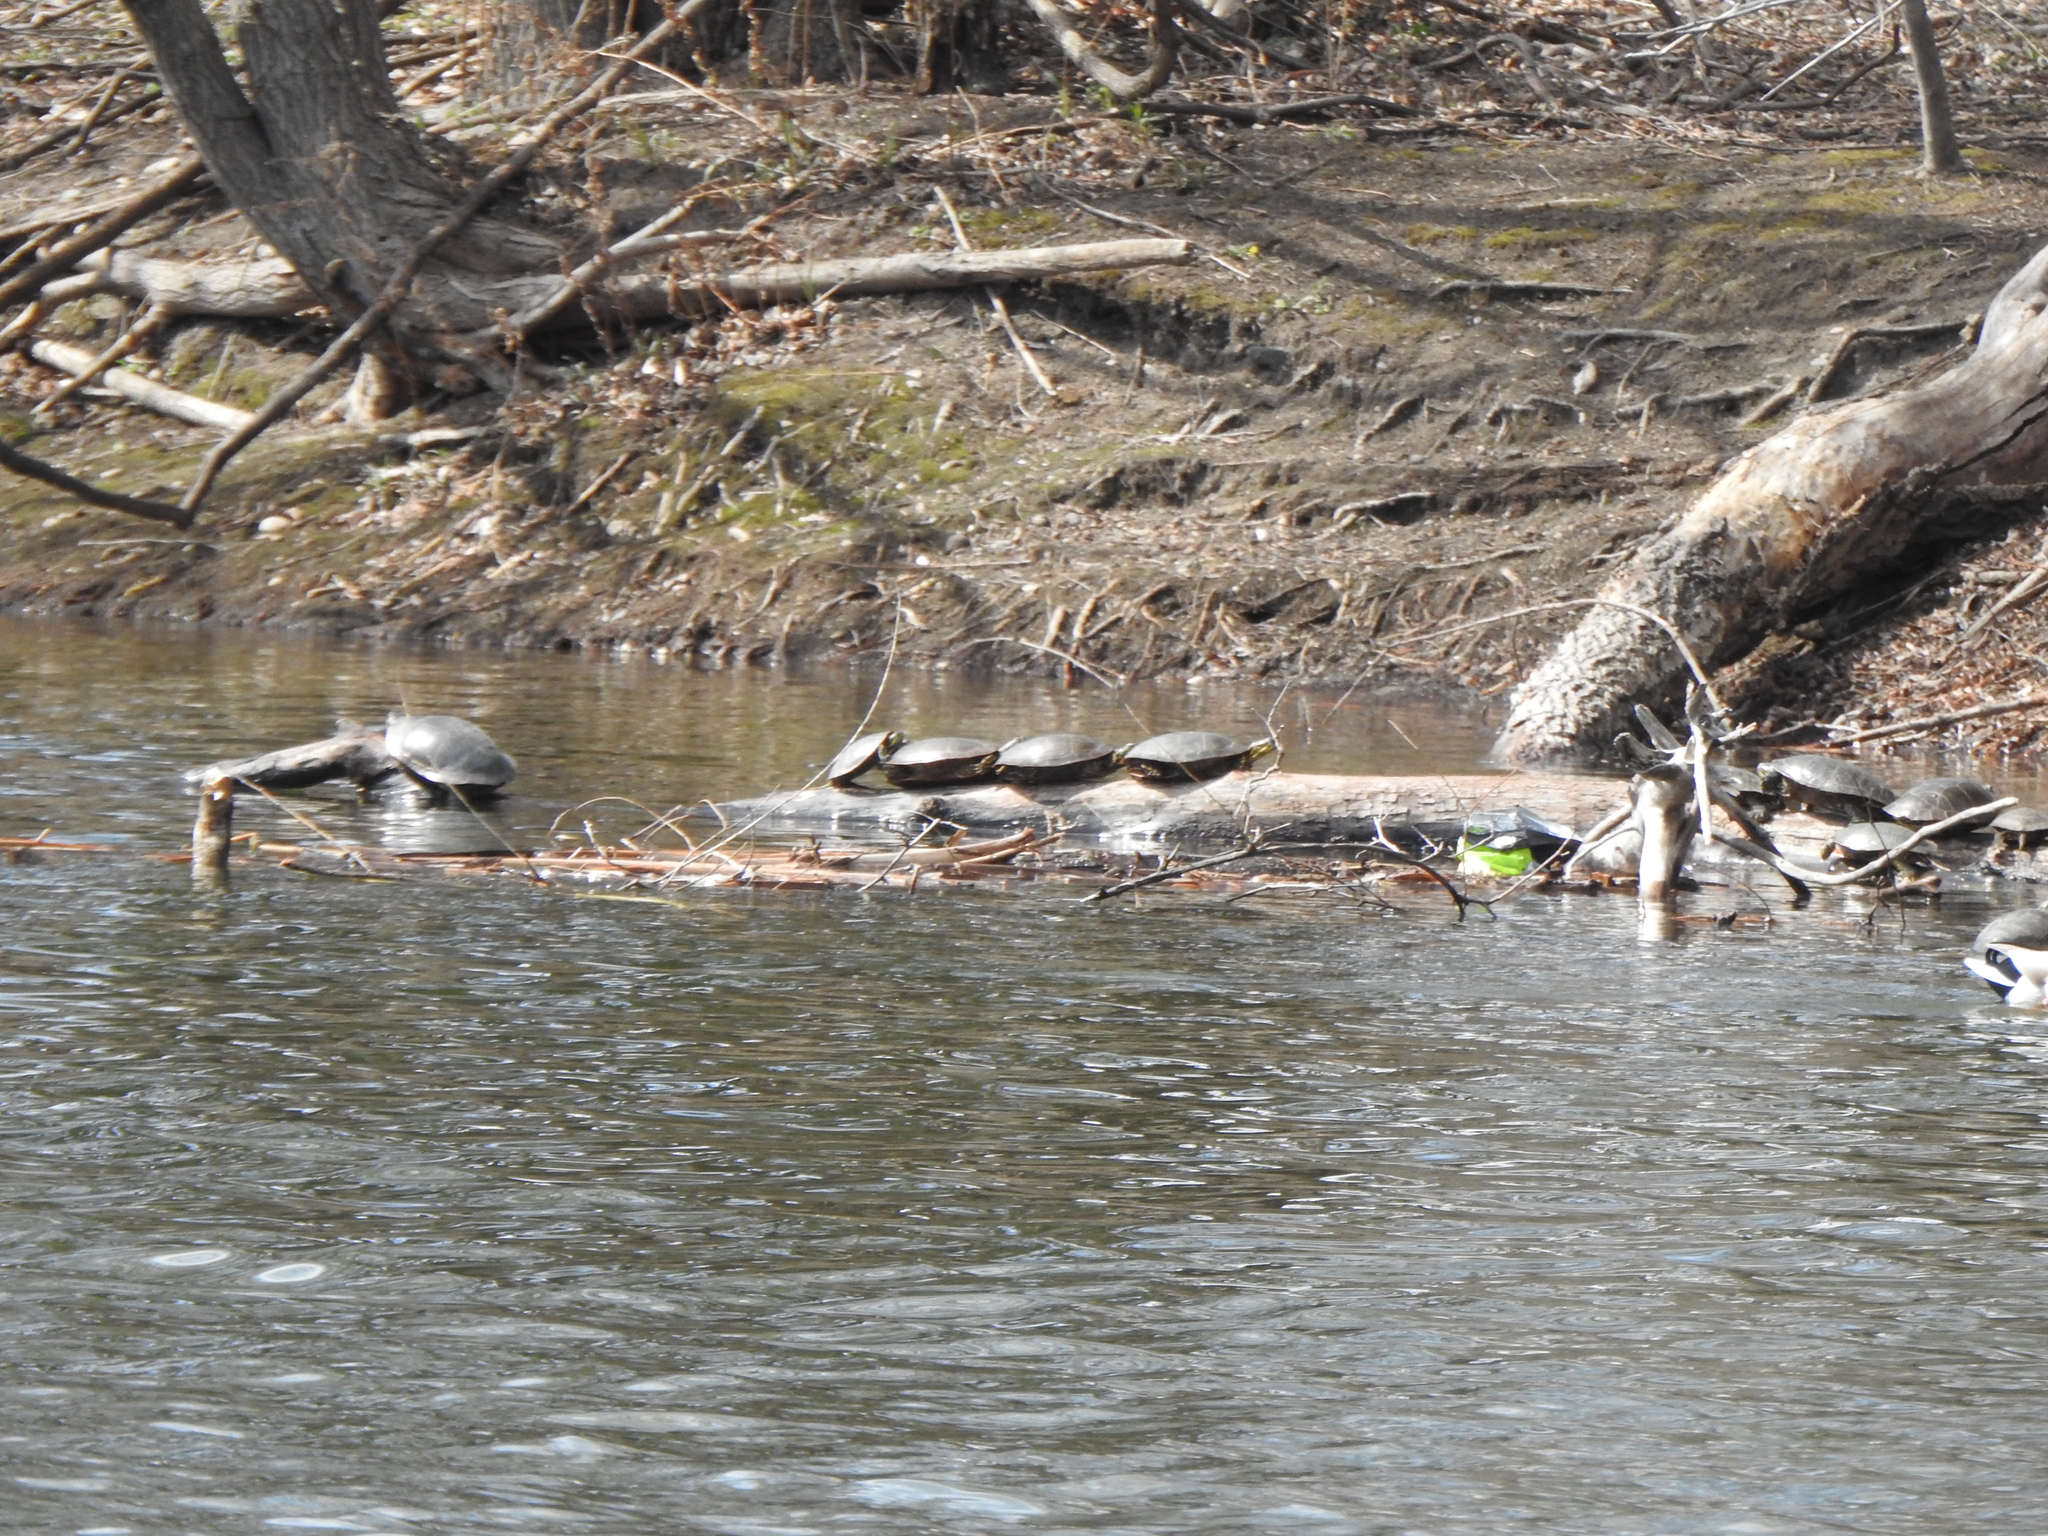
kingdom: Animalia
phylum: Chordata
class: Testudines
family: Emydidae
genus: Chrysemys
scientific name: Chrysemys picta
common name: Painted turtle
